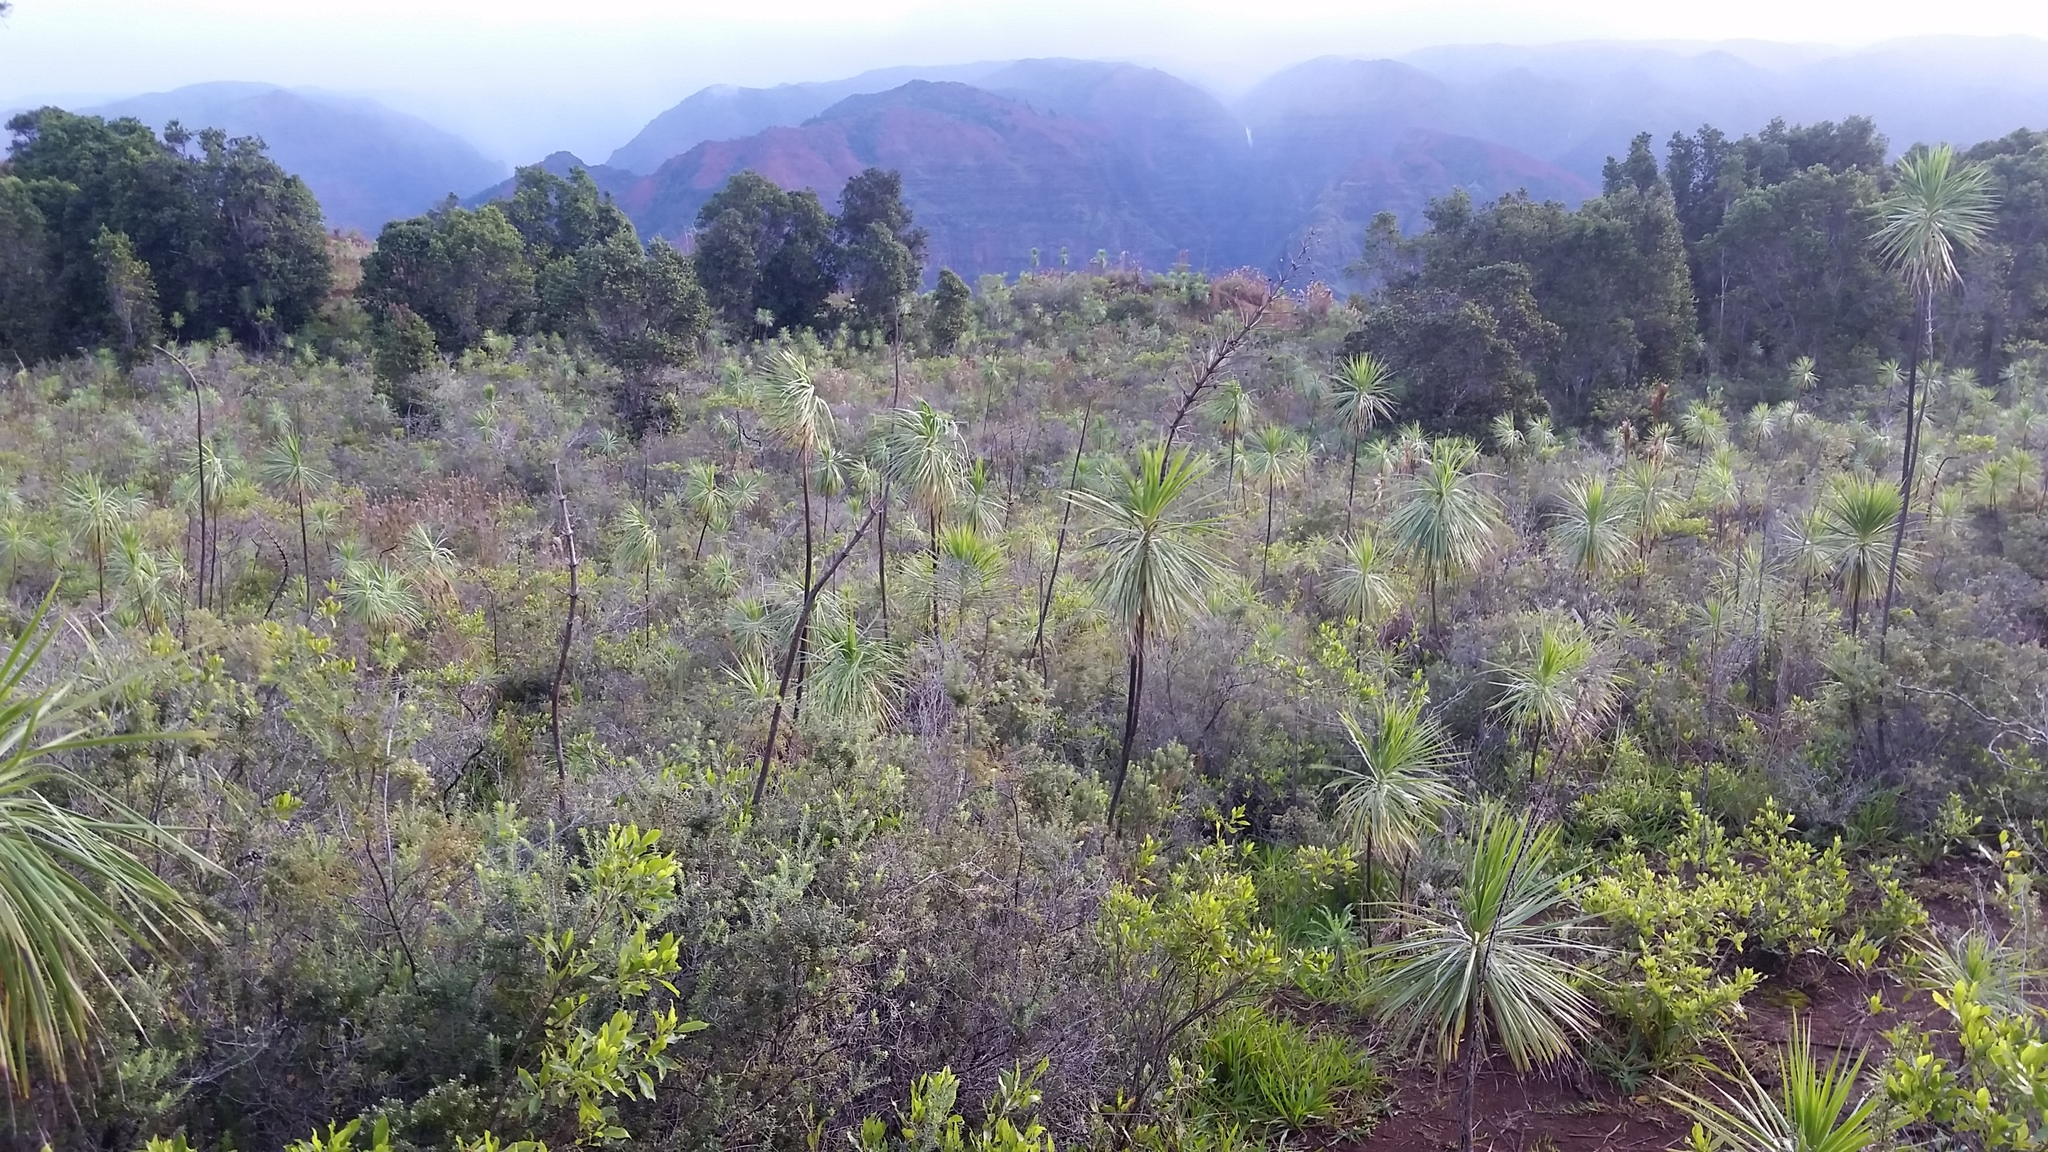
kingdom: Plantae
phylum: Tracheophyta
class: Magnoliopsida
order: Asterales
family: Asteraceae
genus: Wilkesia
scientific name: Wilkesia gymnoxiphium
